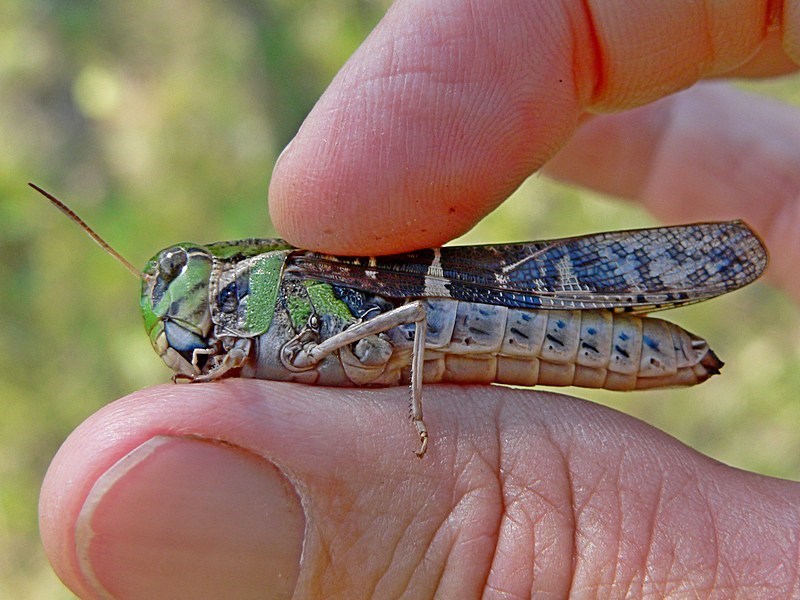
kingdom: Animalia
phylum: Arthropoda
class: Insecta
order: Orthoptera
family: Acrididae
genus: Gastrimargus
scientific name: Gastrimargus musicus
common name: Yellow-winged locust
